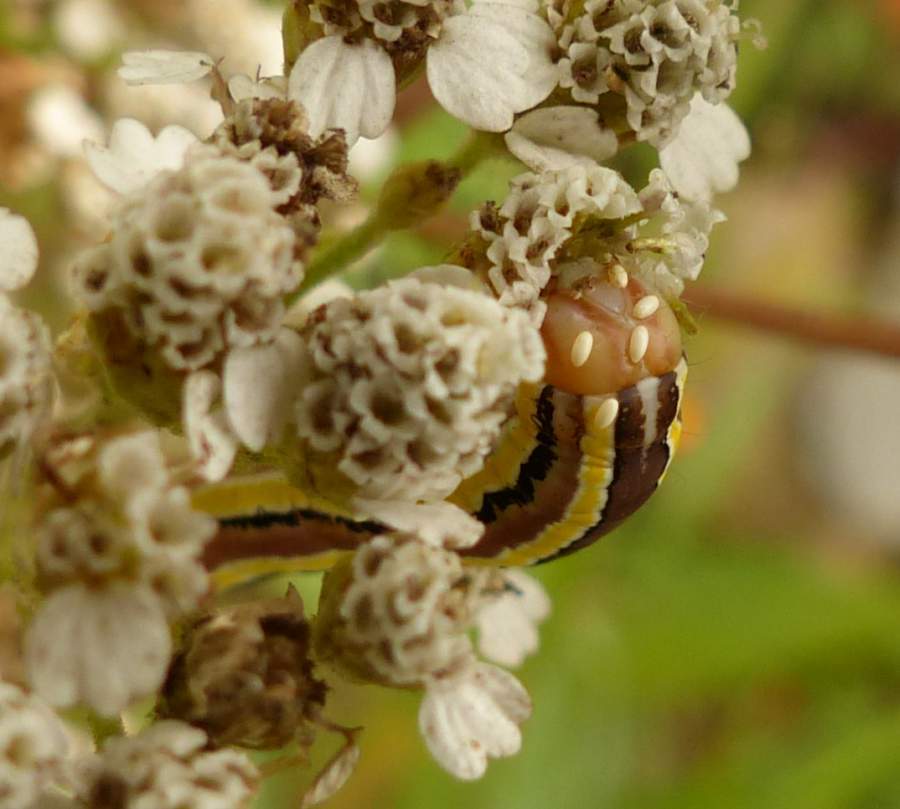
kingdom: Animalia
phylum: Arthropoda
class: Insecta
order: Lepidoptera
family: Noctuidae
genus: Trichordestra
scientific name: Trichordestra legitima
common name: Striped garden caterpillar
